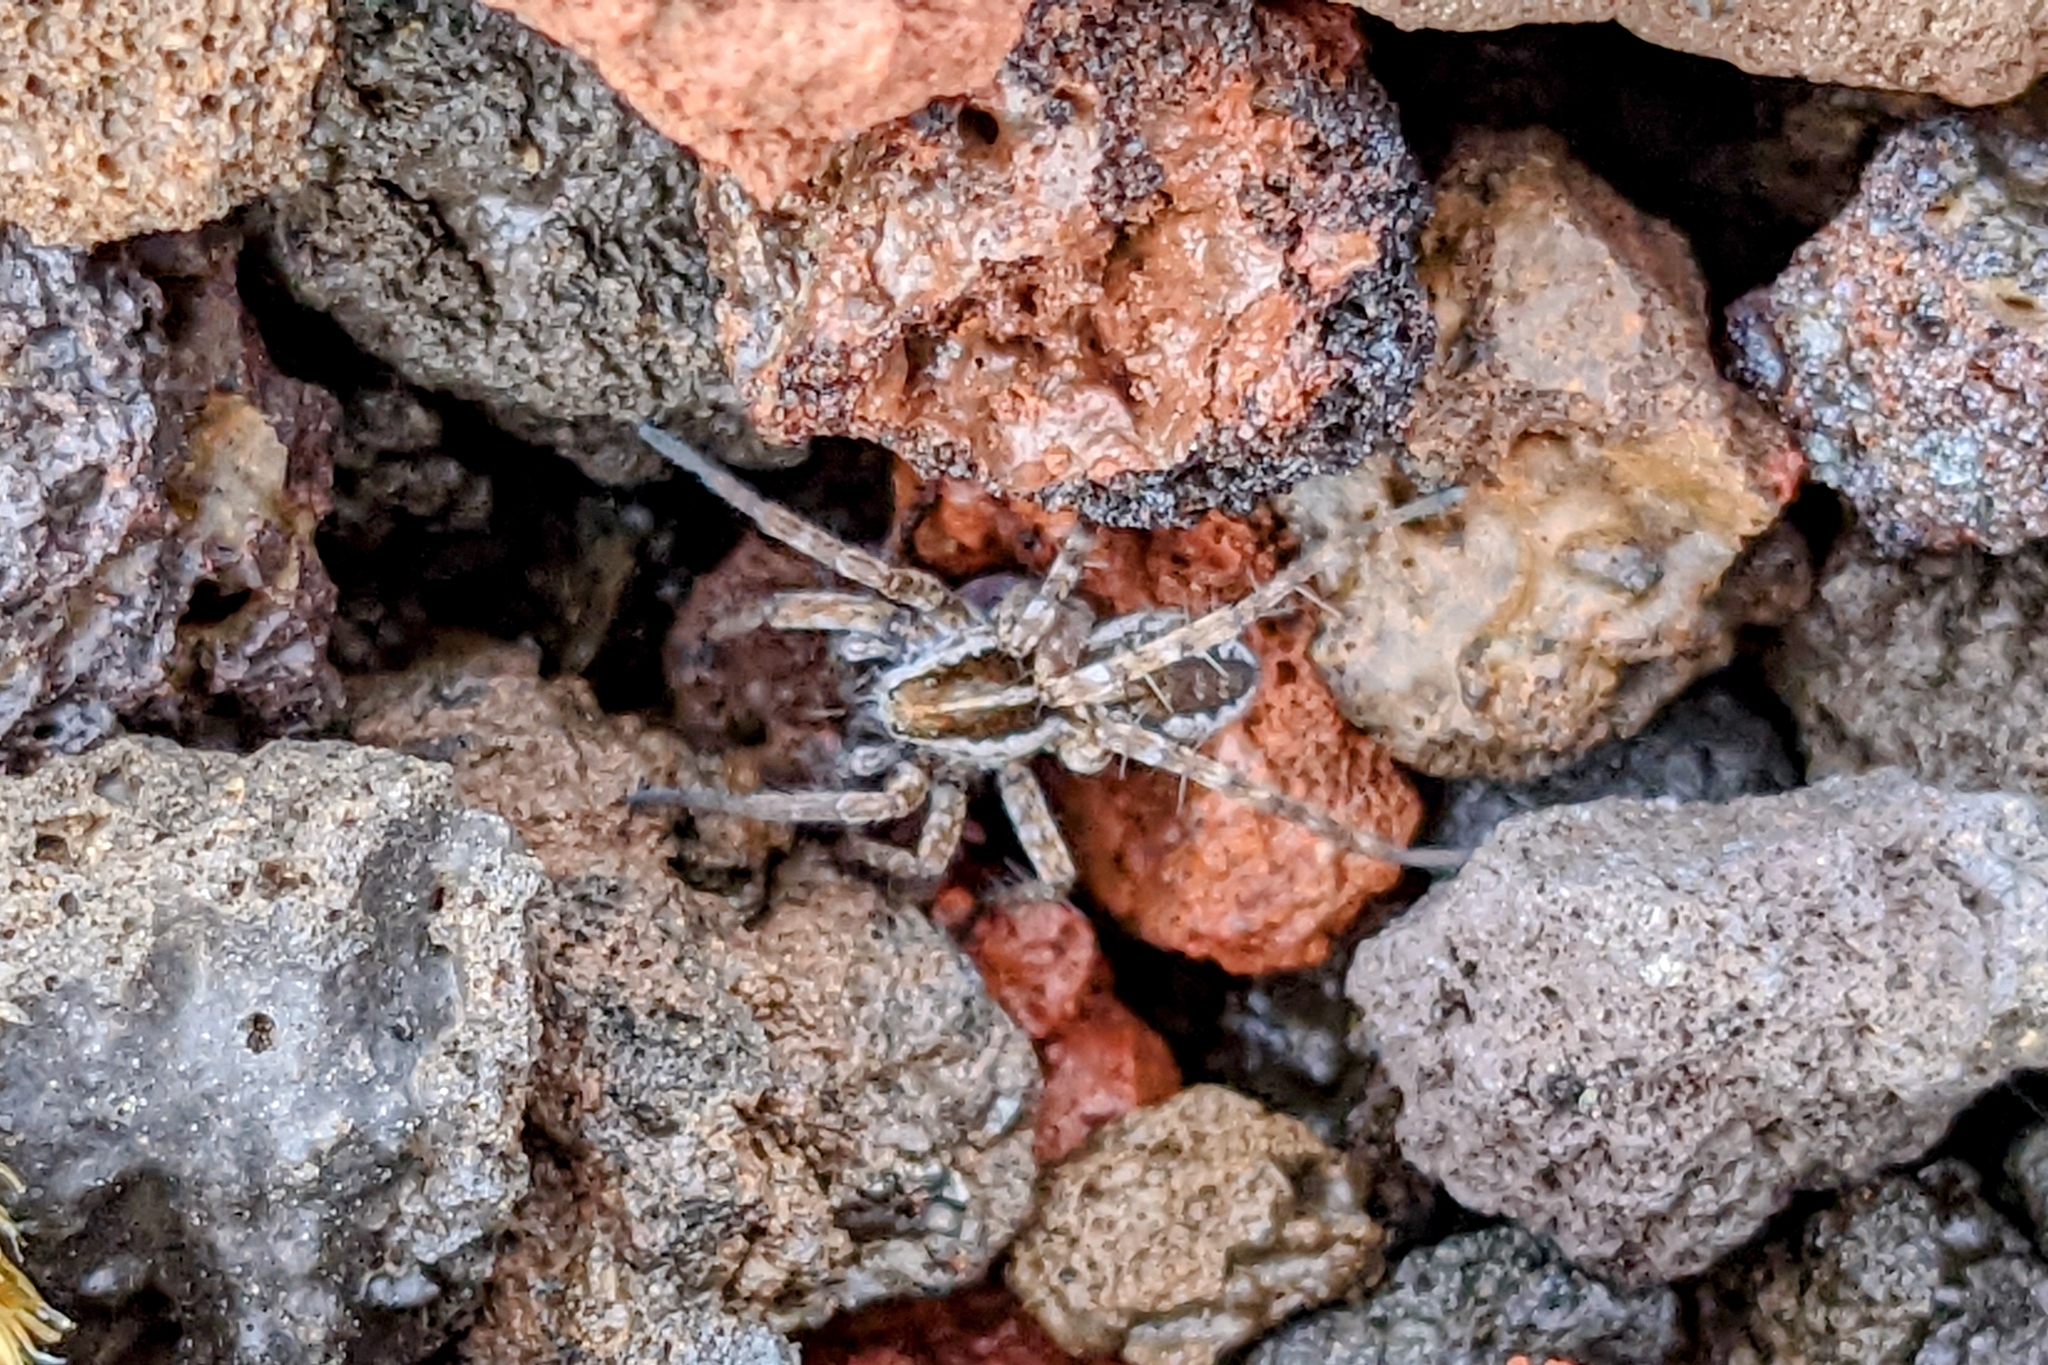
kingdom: Animalia
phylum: Arthropoda
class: Arachnida
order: Araneae
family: Lycosidae
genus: Pardosa
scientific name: Pardosa palustris
